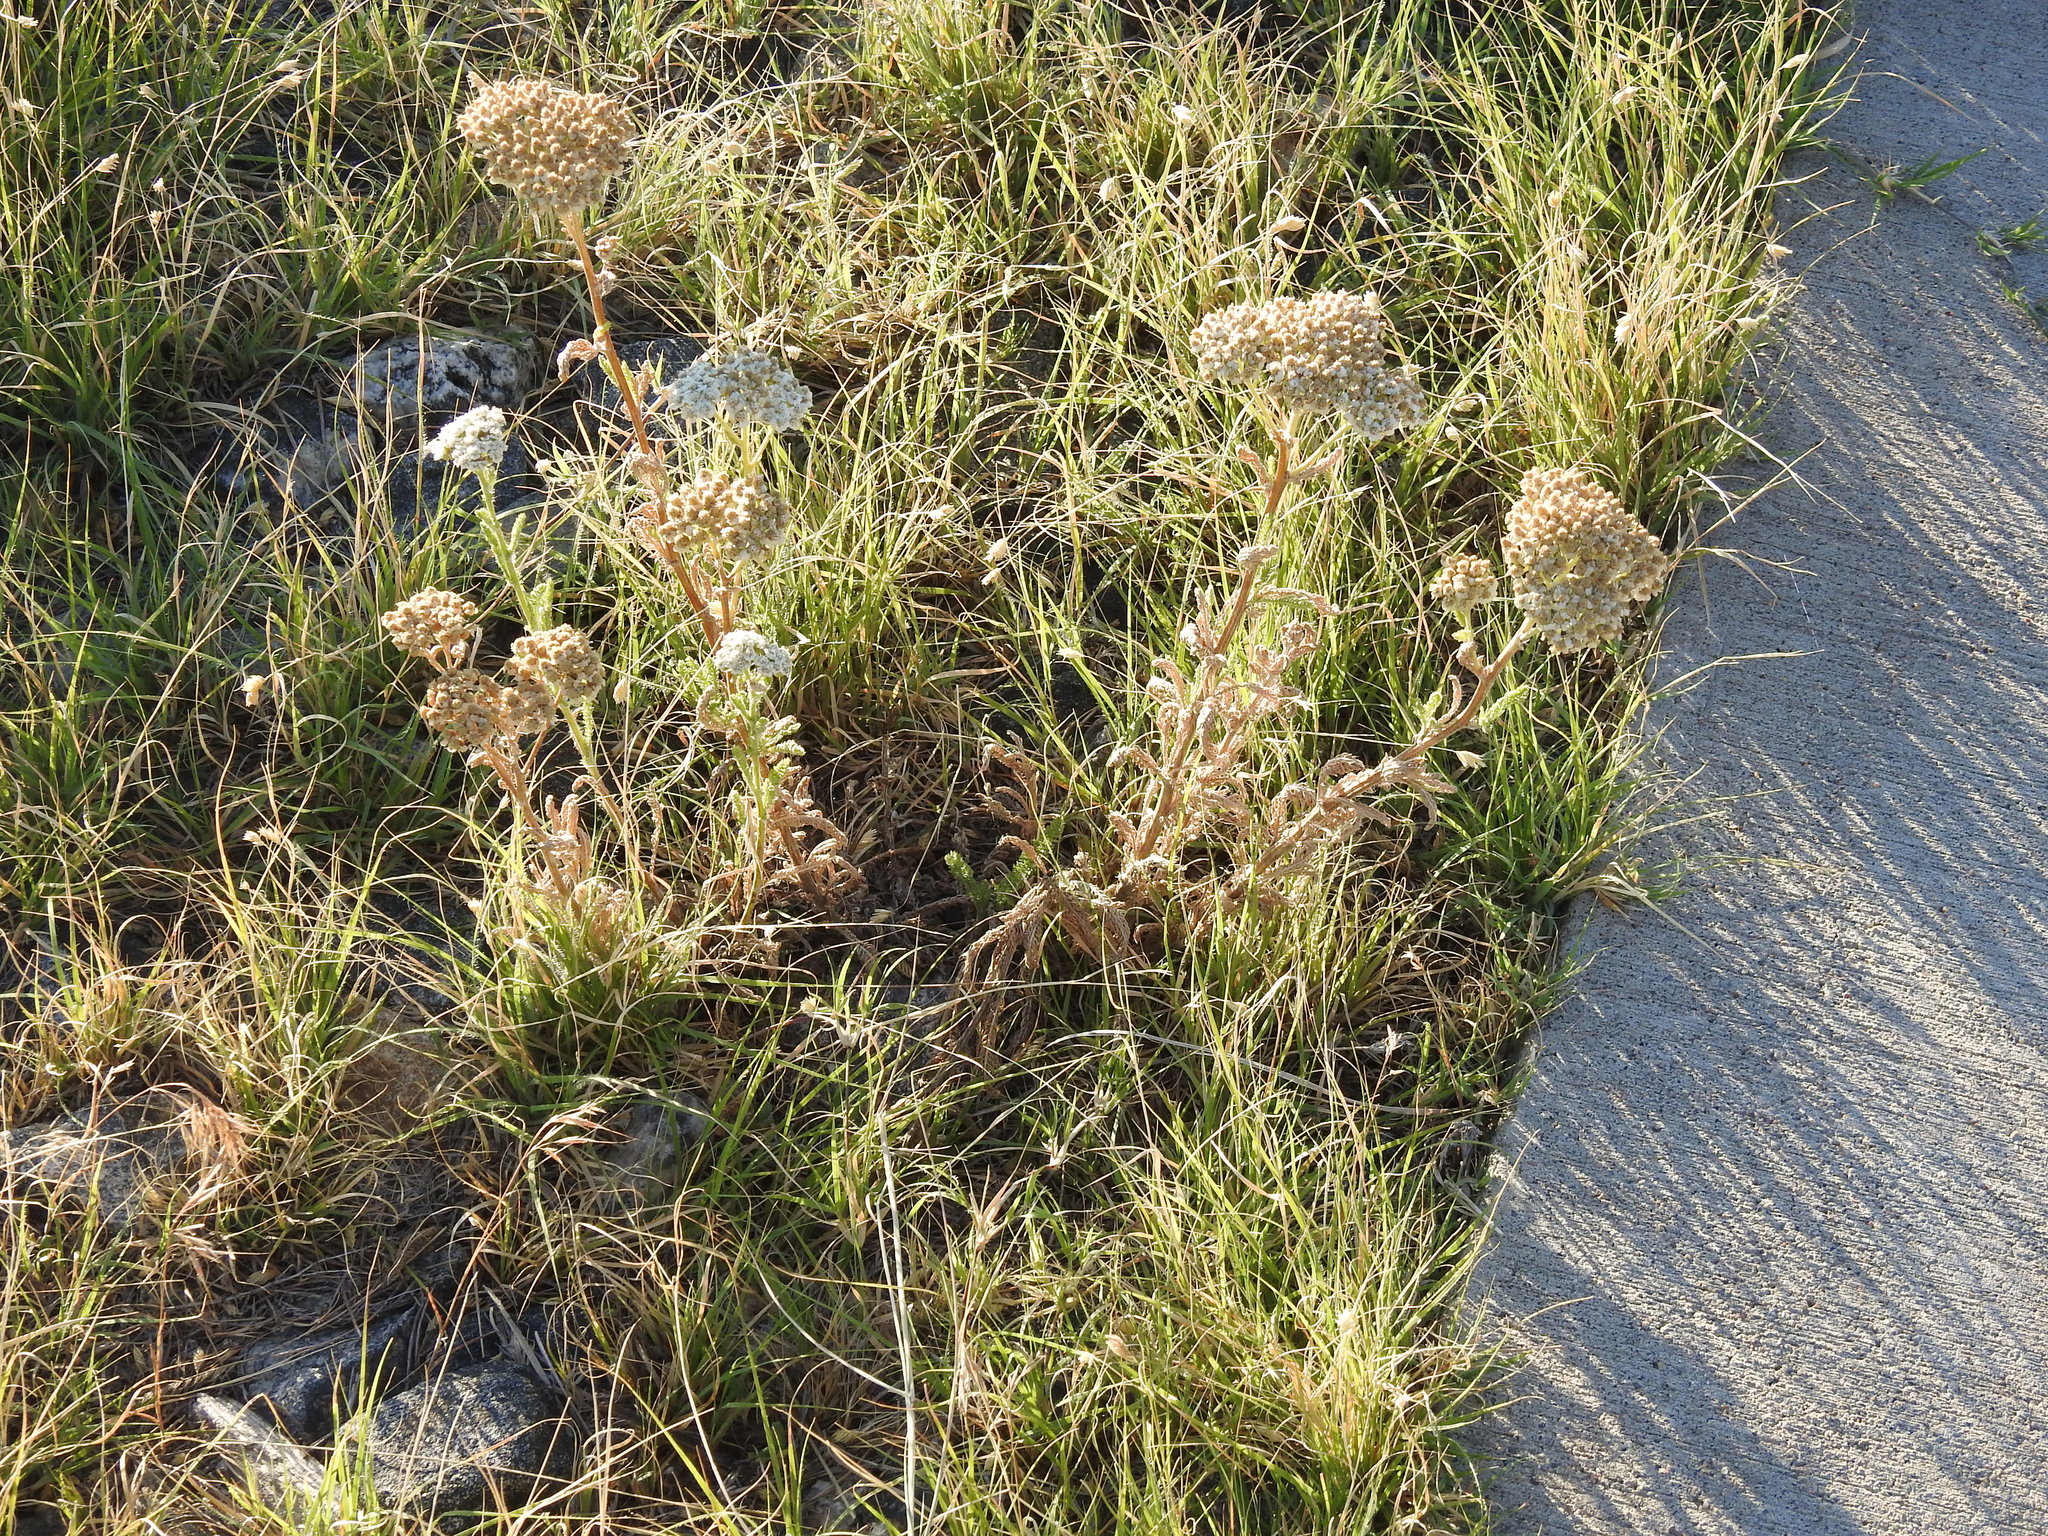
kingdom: Plantae
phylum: Tracheophyta
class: Magnoliopsida
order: Asterales
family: Asteraceae
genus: Achillea
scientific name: Achillea millefolium
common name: Yarrow
